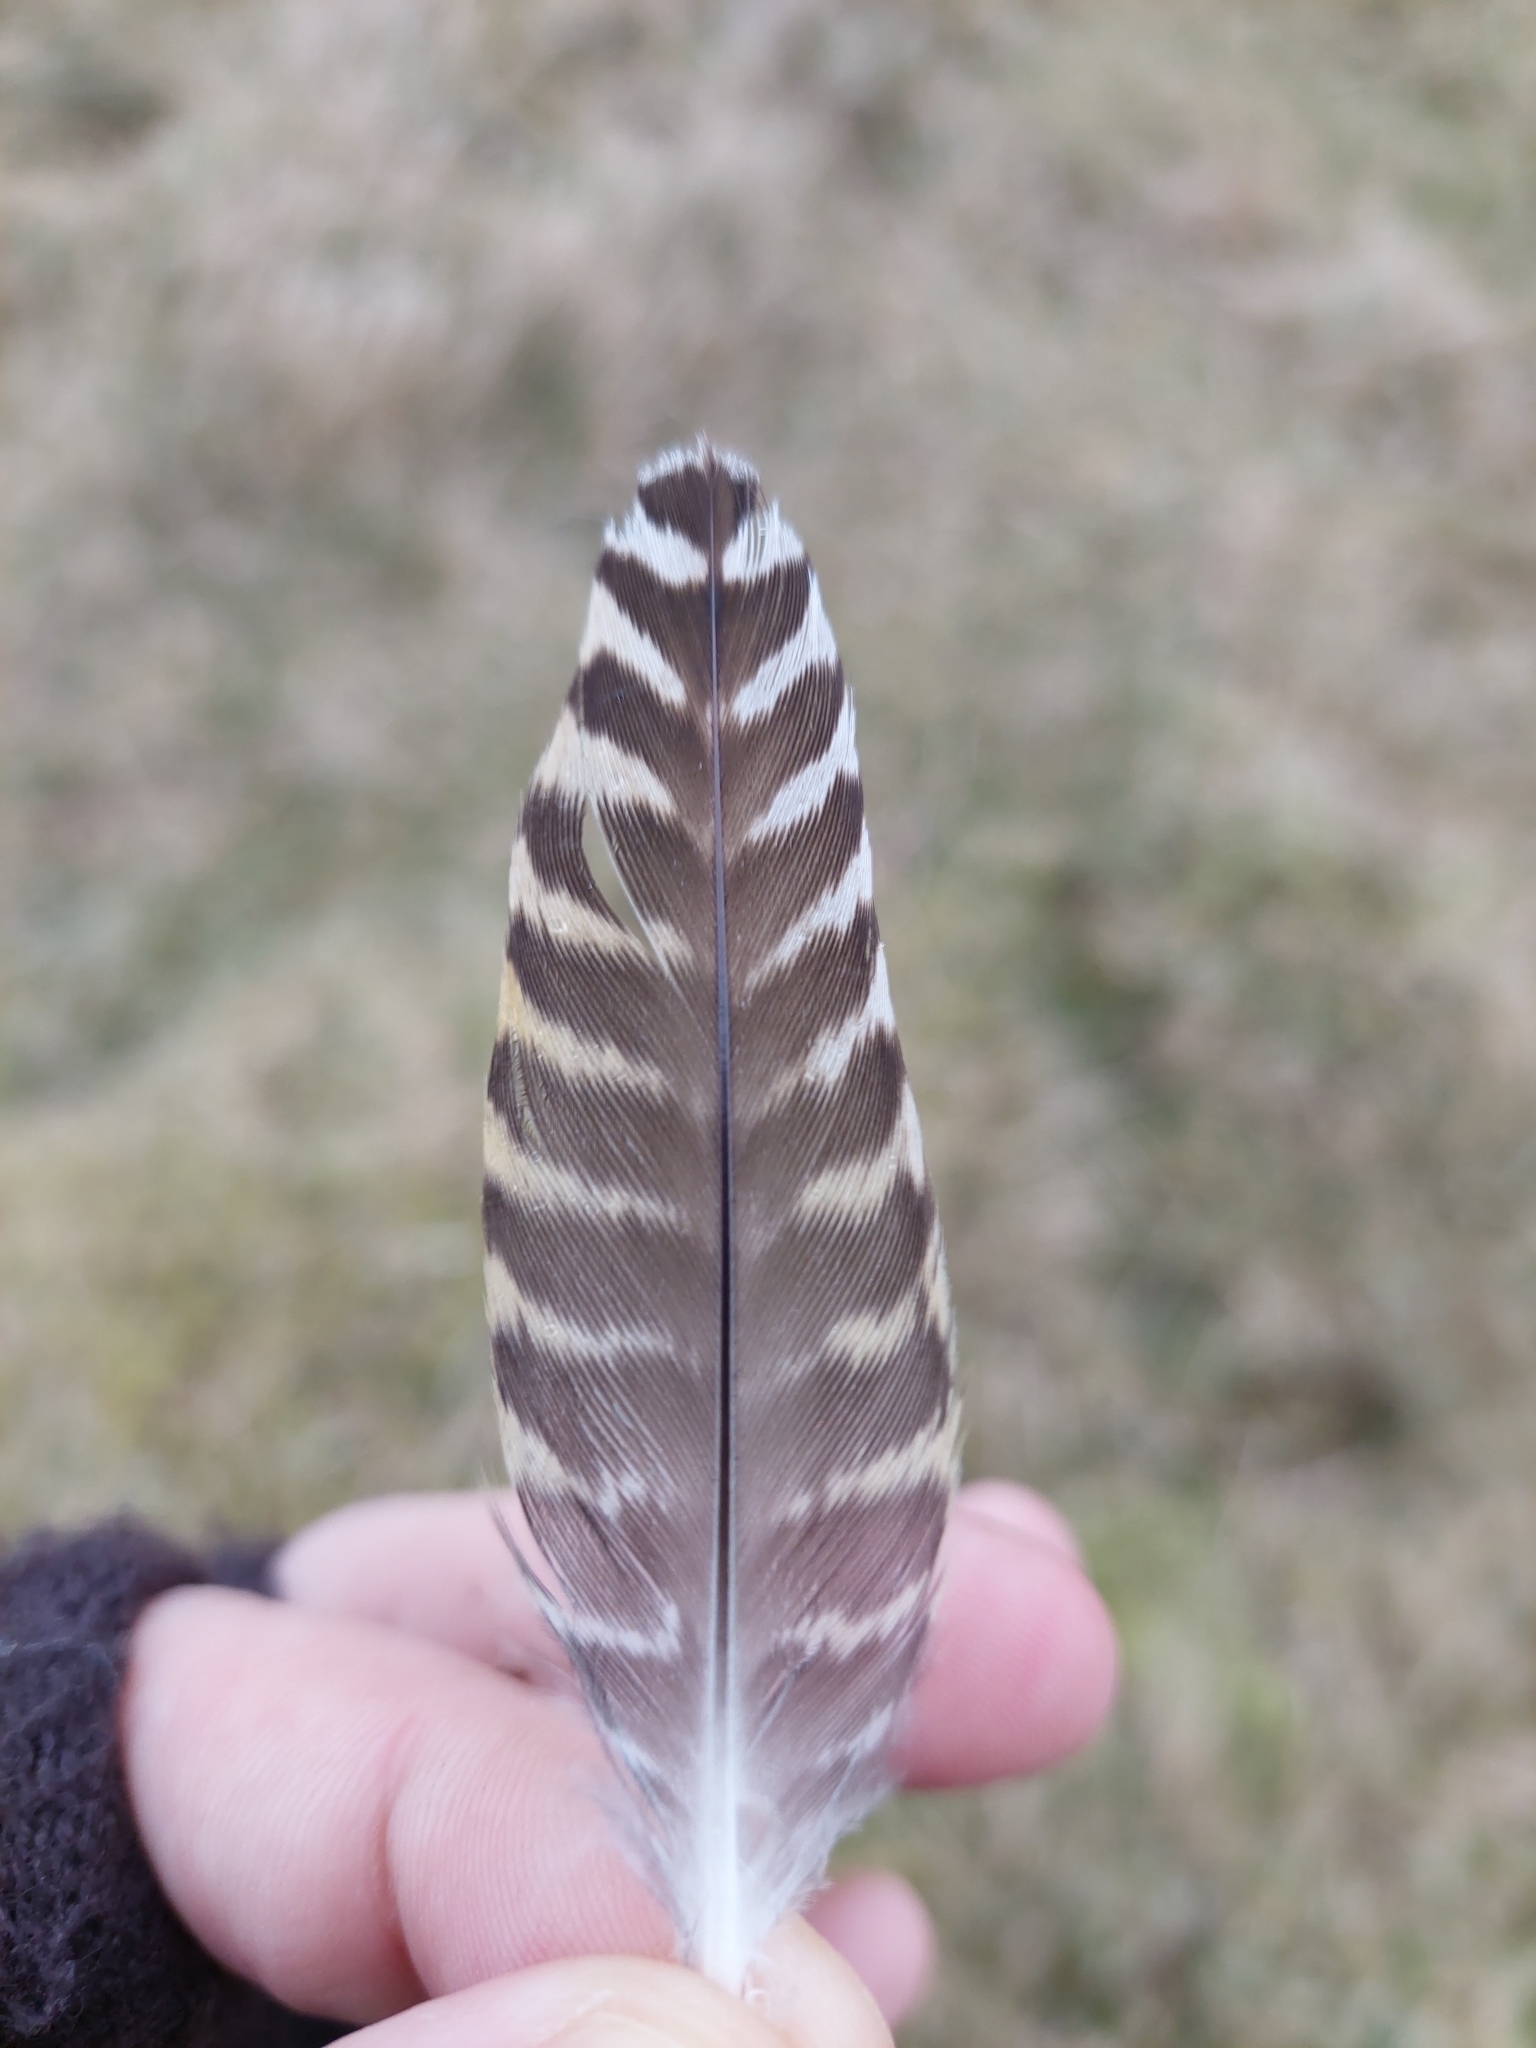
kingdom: Animalia
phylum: Chordata
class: Aves
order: Charadriiformes
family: Charadriidae
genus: Pluvialis
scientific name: Pluvialis apricaria
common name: European golden plover
